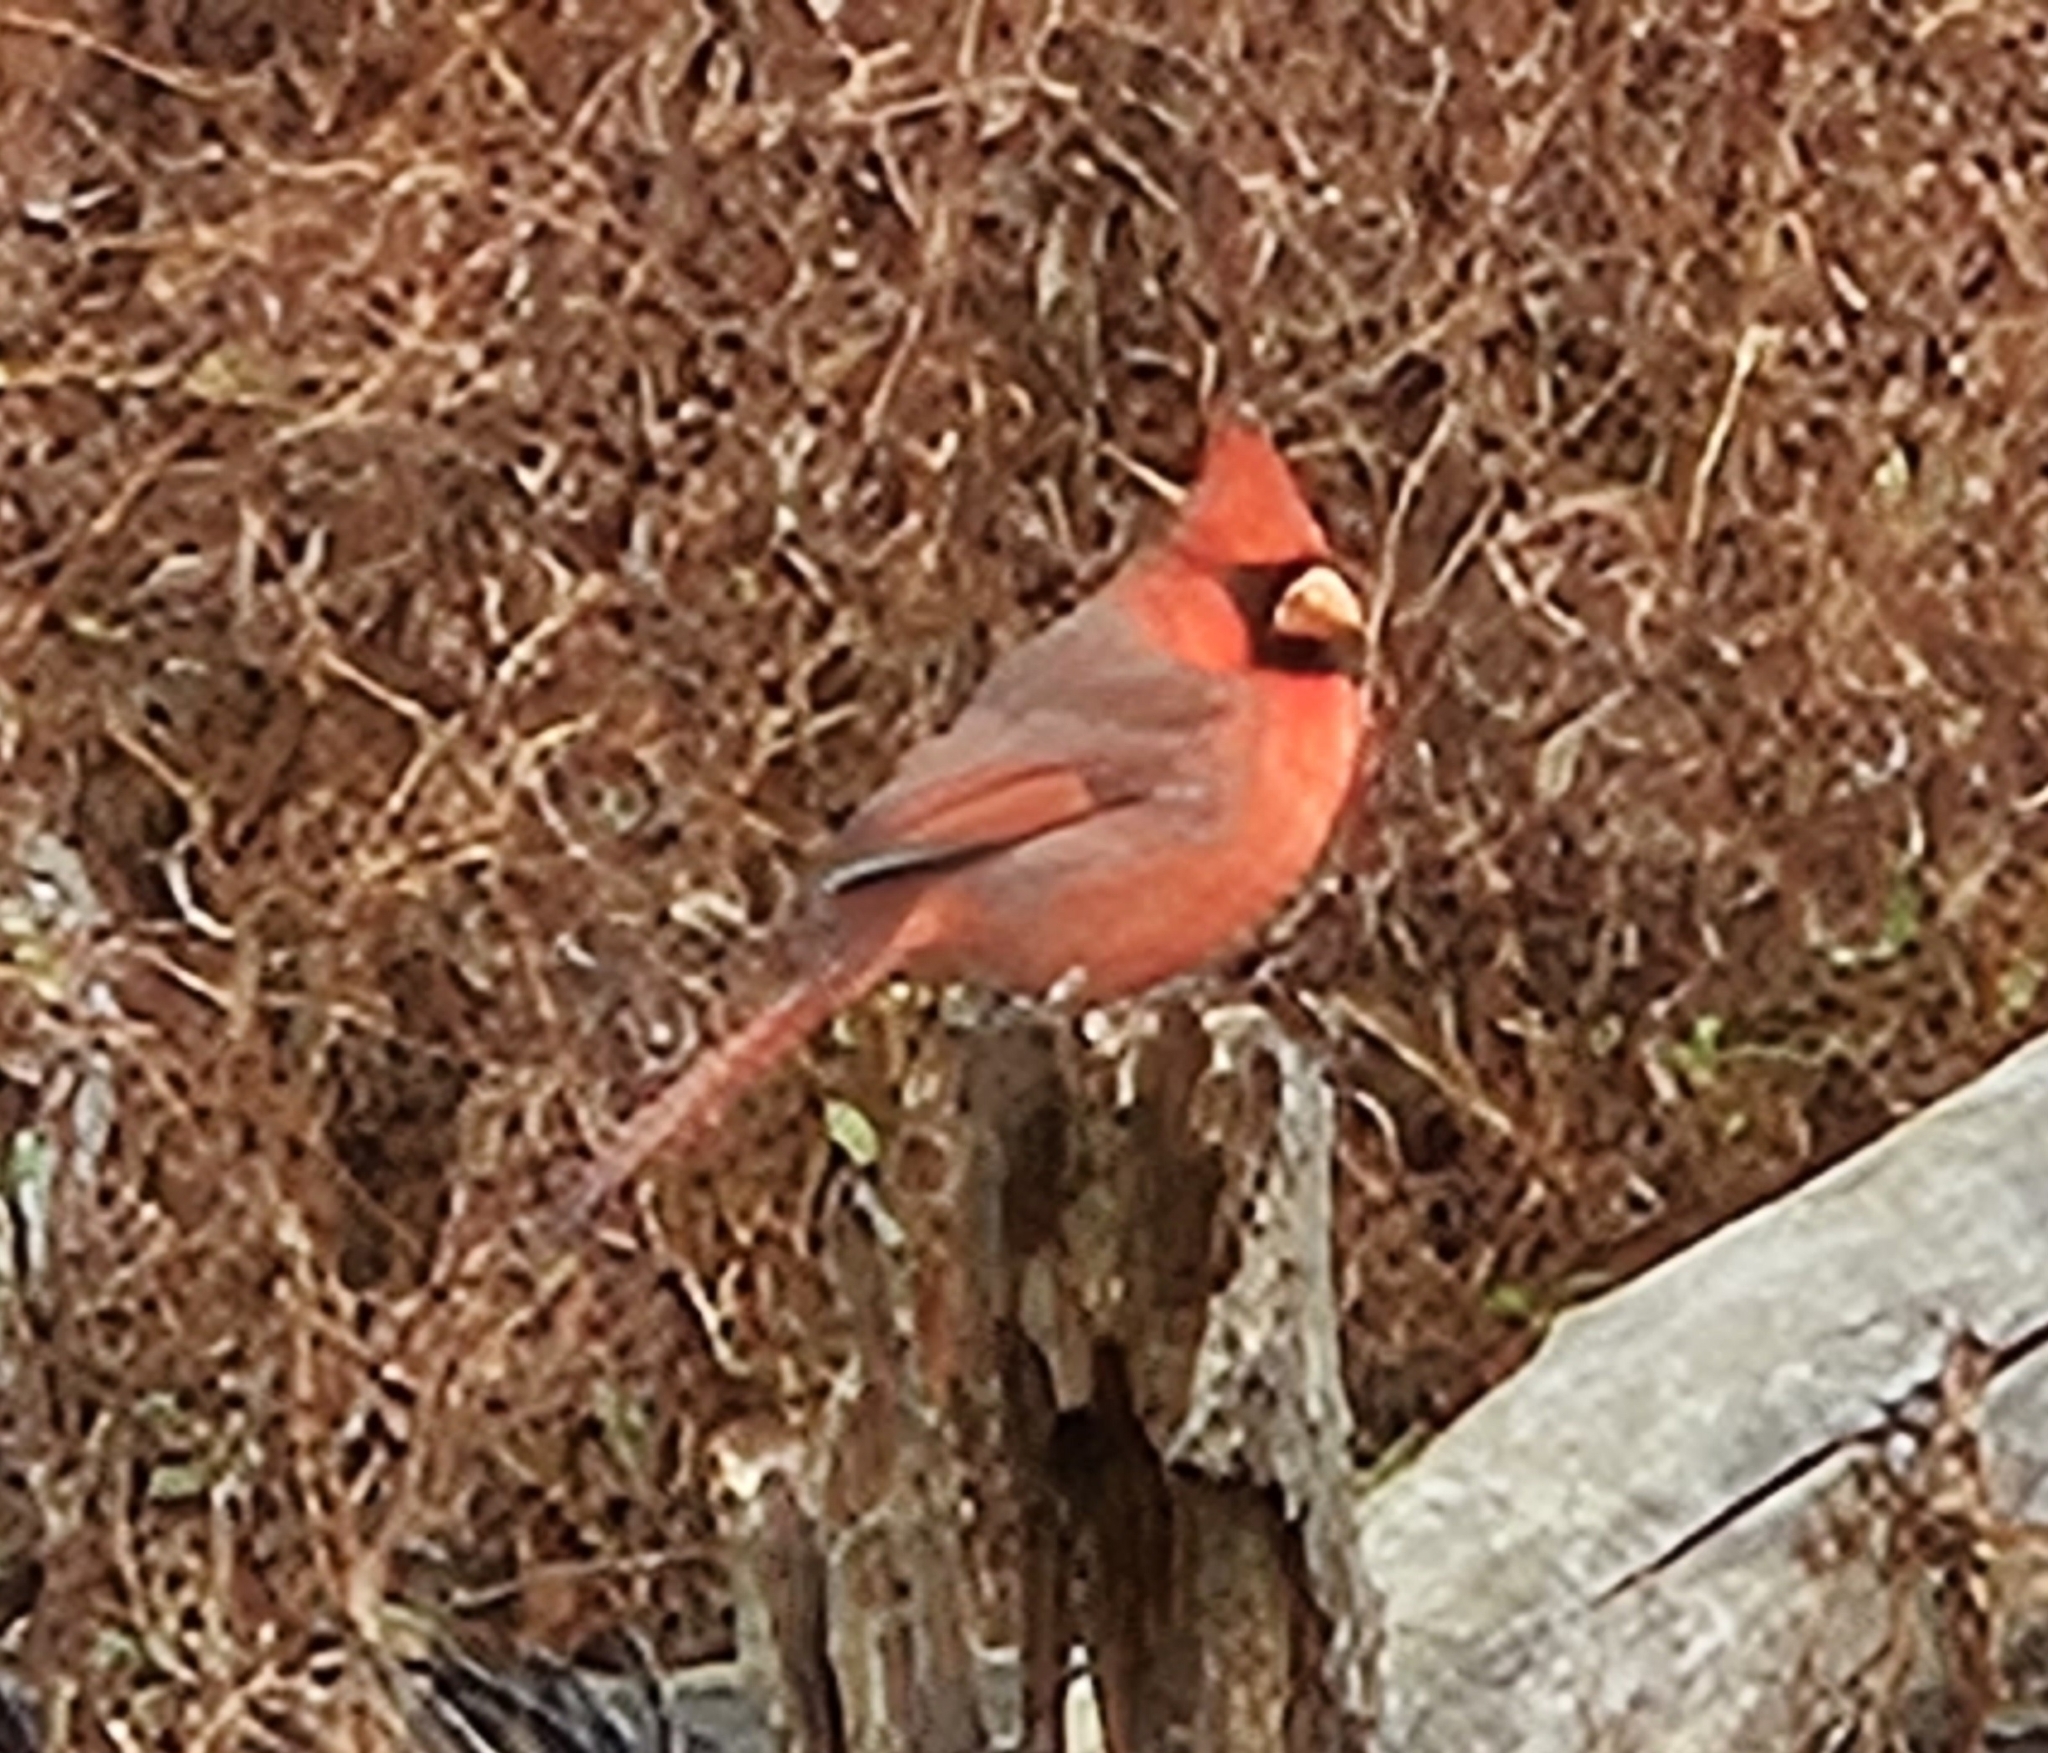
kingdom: Animalia
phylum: Chordata
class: Aves
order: Passeriformes
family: Cardinalidae
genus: Cardinalis
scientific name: Cardinalis cardinalis
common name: Northern cardinal
